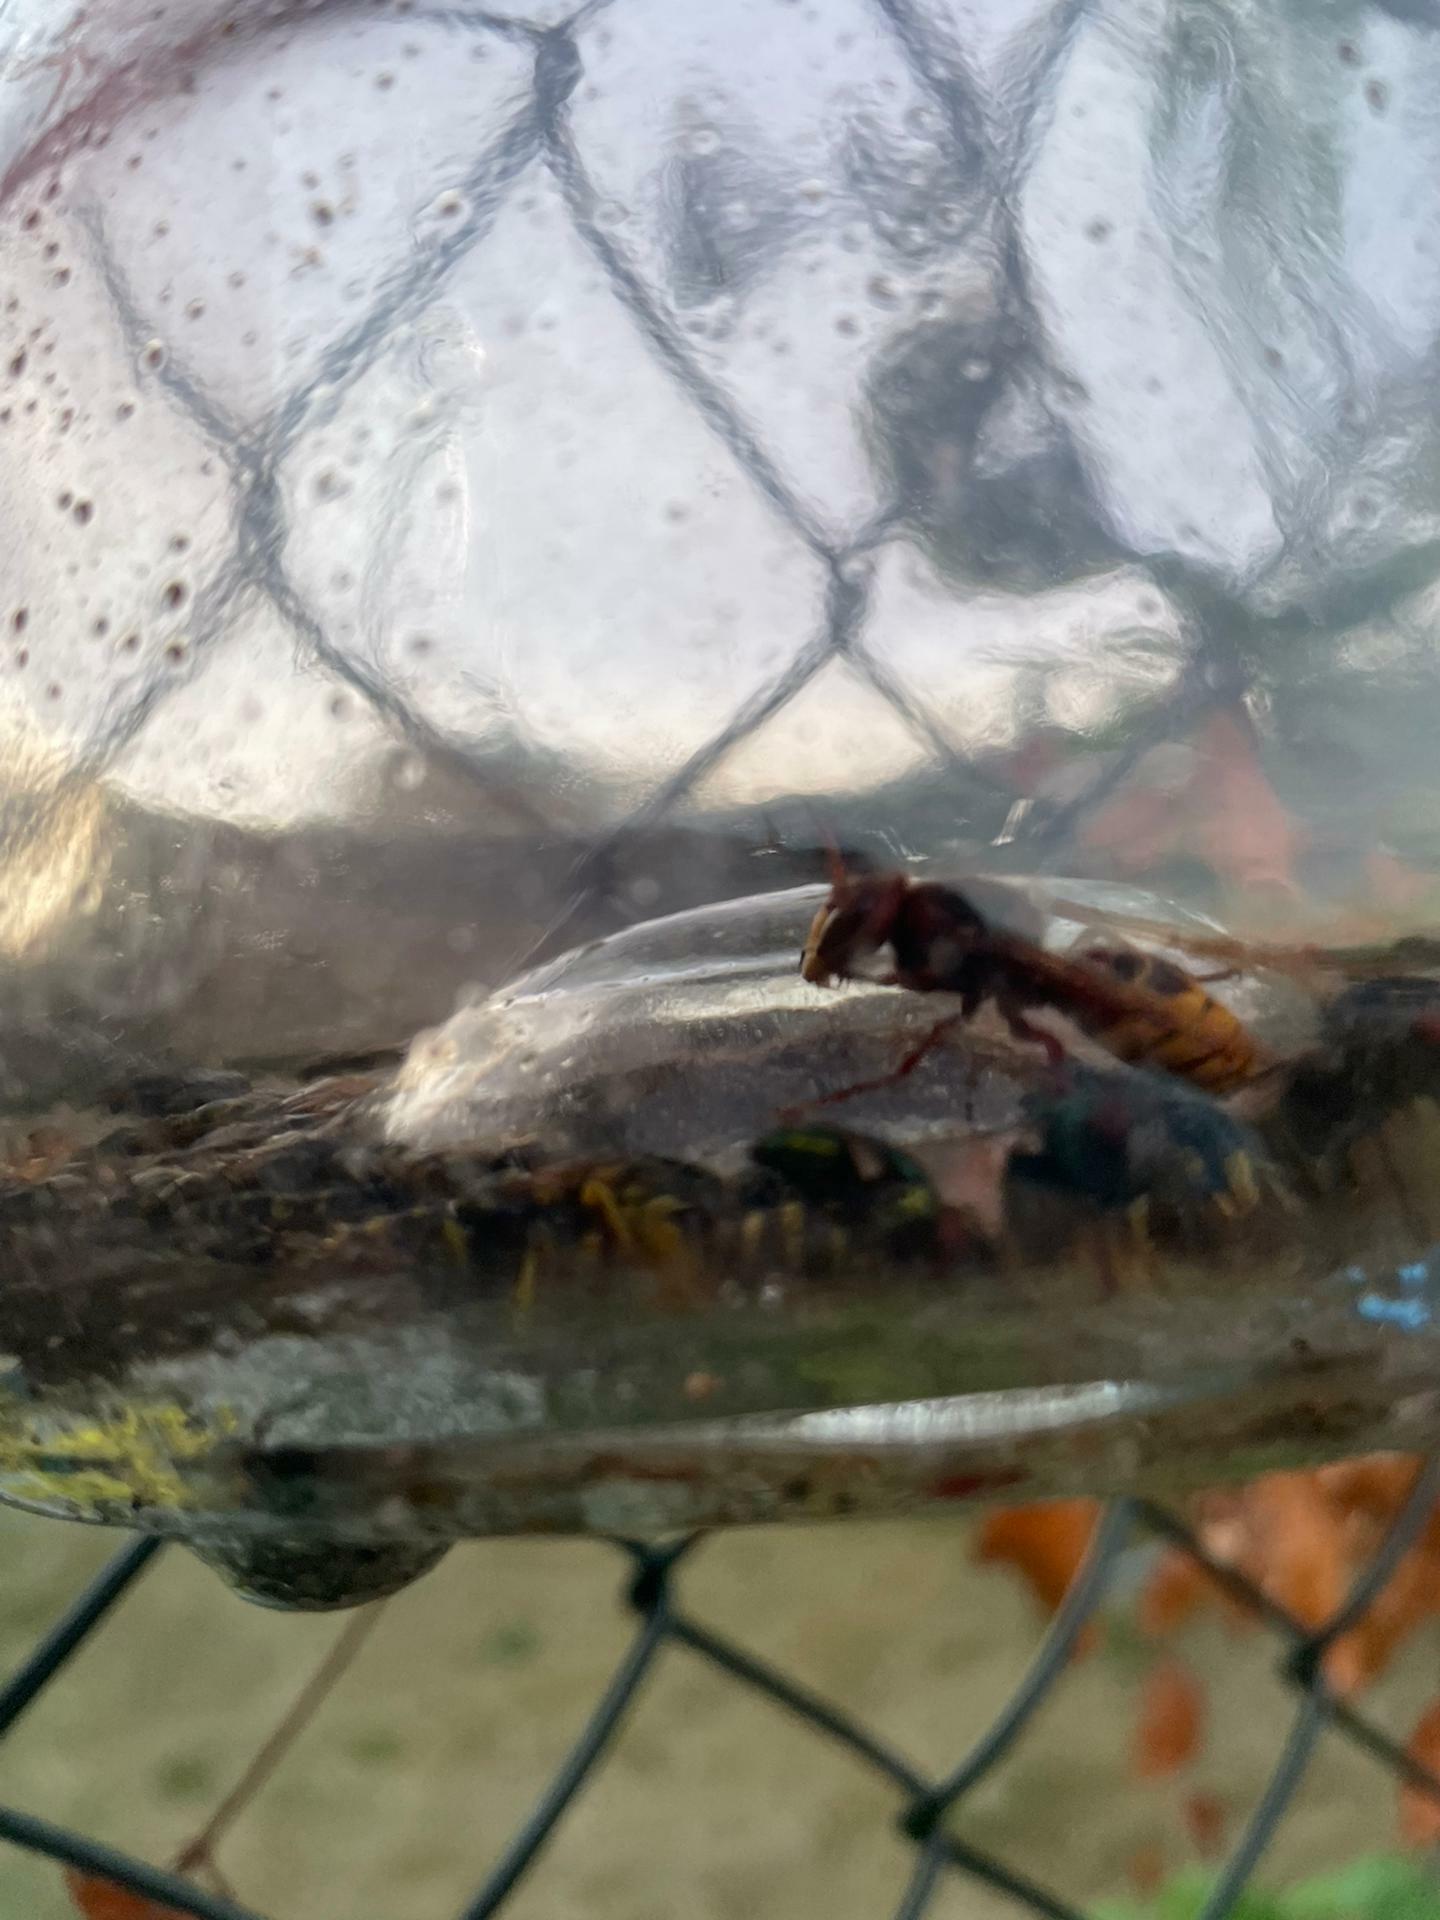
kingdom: Animalia
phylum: Arthropoda
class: Insecta
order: Hymenoptera
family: Vespidae
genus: Vespa
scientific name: Vespa crabro
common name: Hornet
